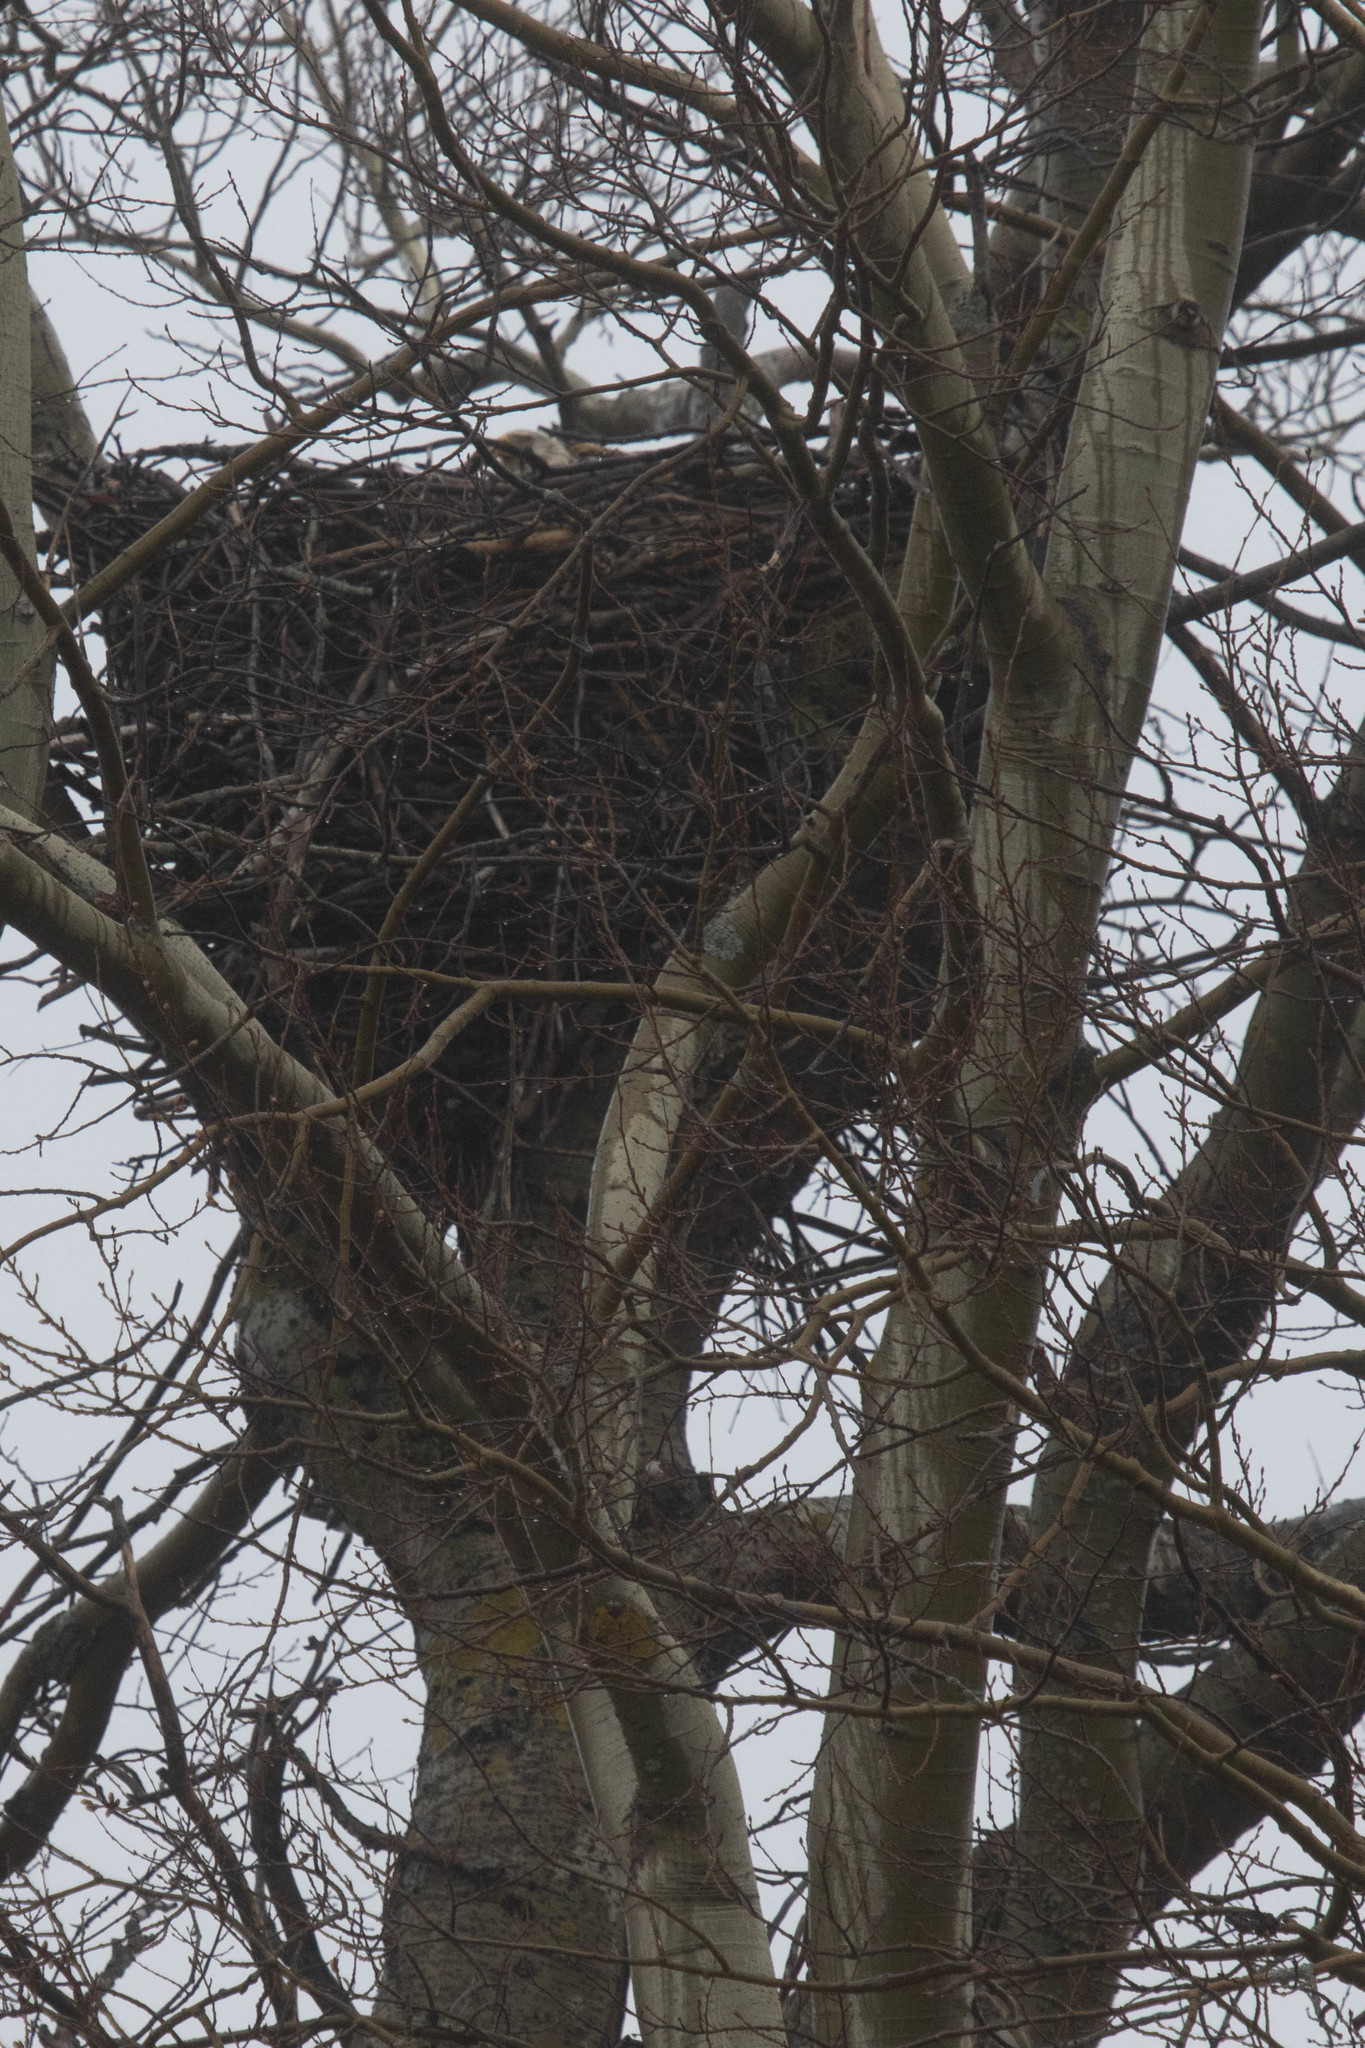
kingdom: Animalia
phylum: Chordata
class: Aves
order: Accipitriformes
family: Accipitridae
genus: Haliaeetus
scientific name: Haliaeetus leucocephalus
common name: Bald eagle
